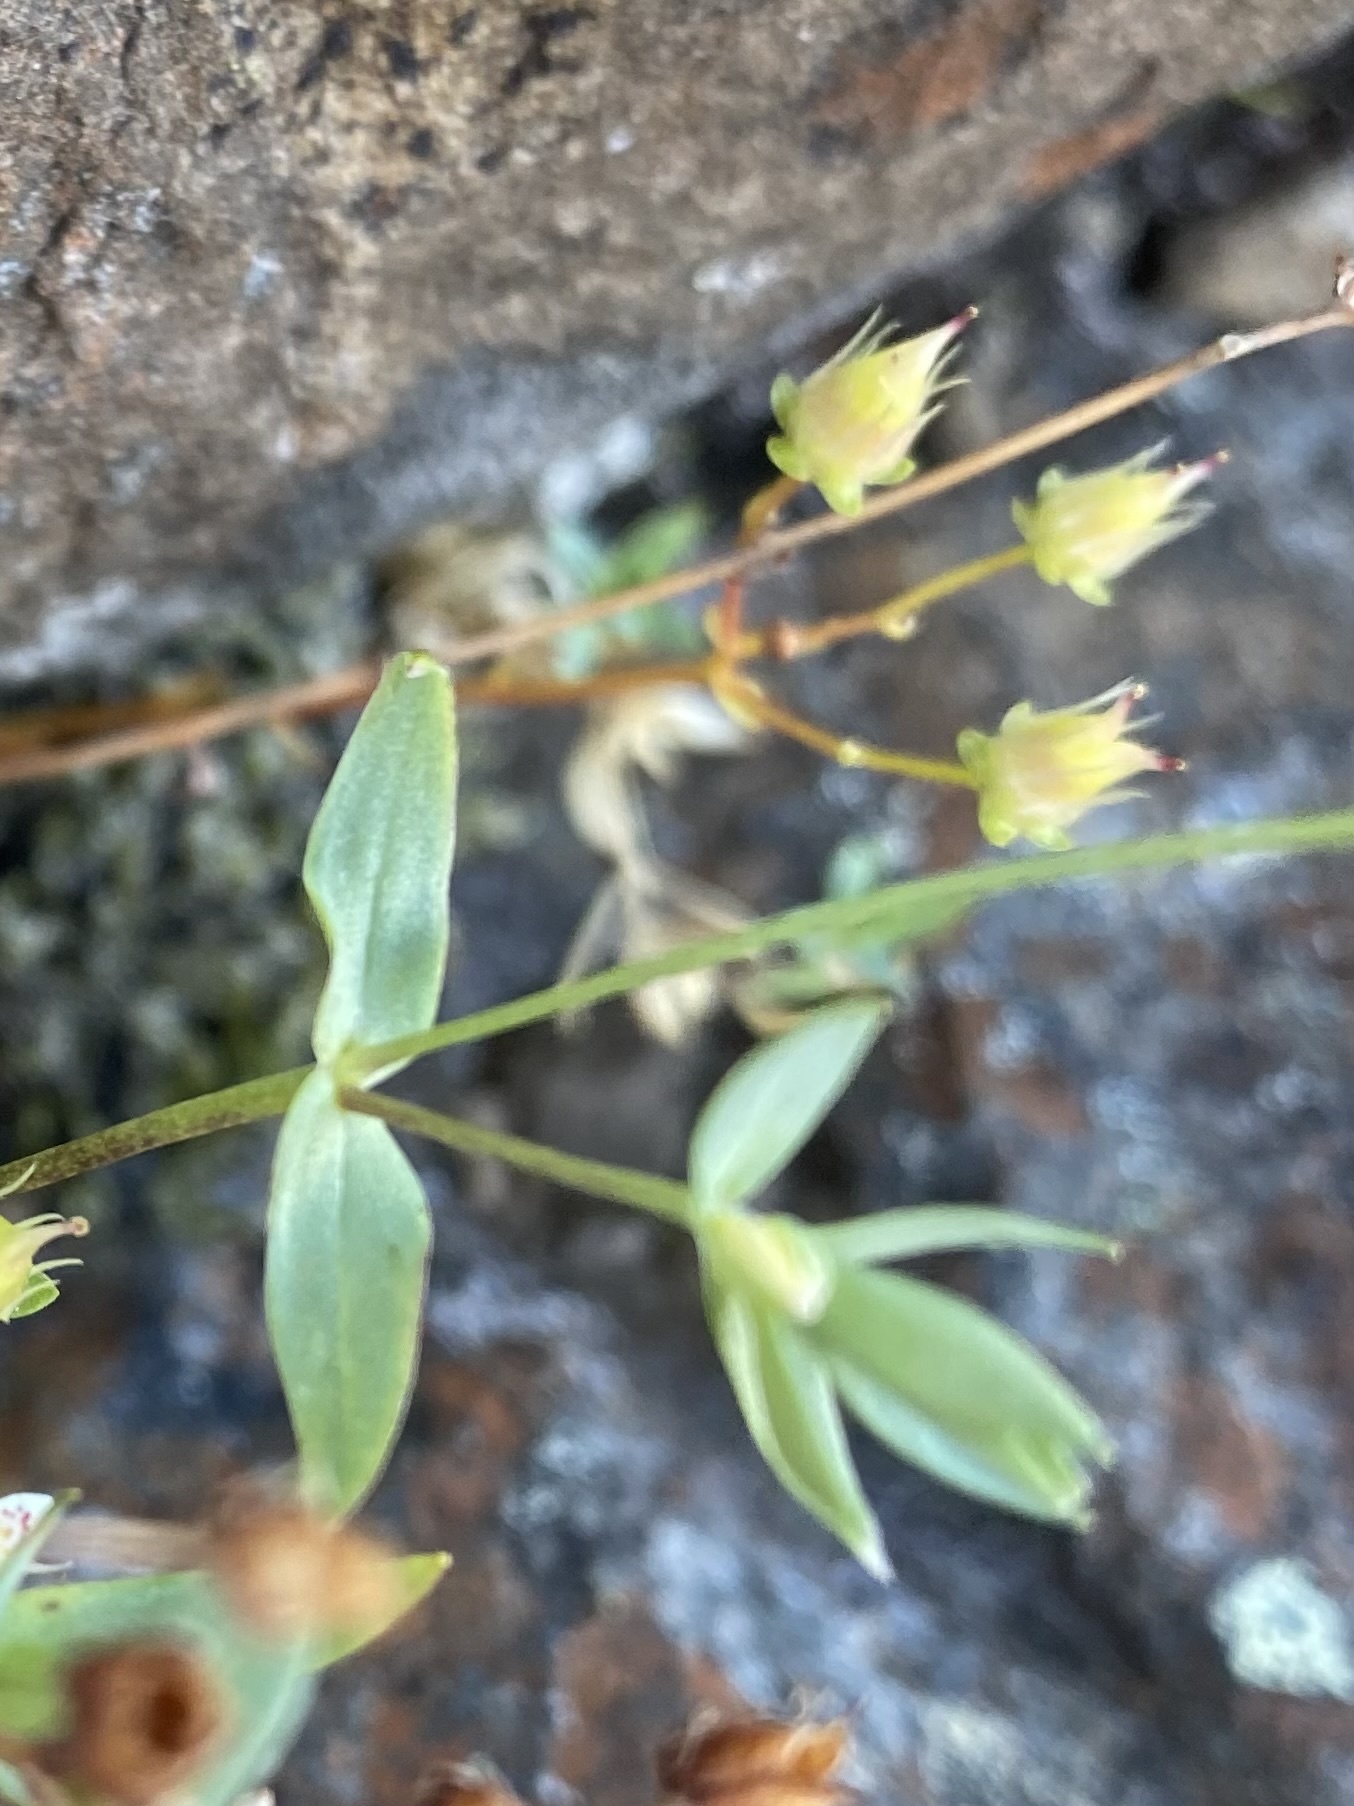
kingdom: Plantae
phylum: Tracheophyta
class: Magnoliopsida
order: Caryophyllales
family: Caryophyllaceae
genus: Stellaria
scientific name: Stellaria edwardsii
